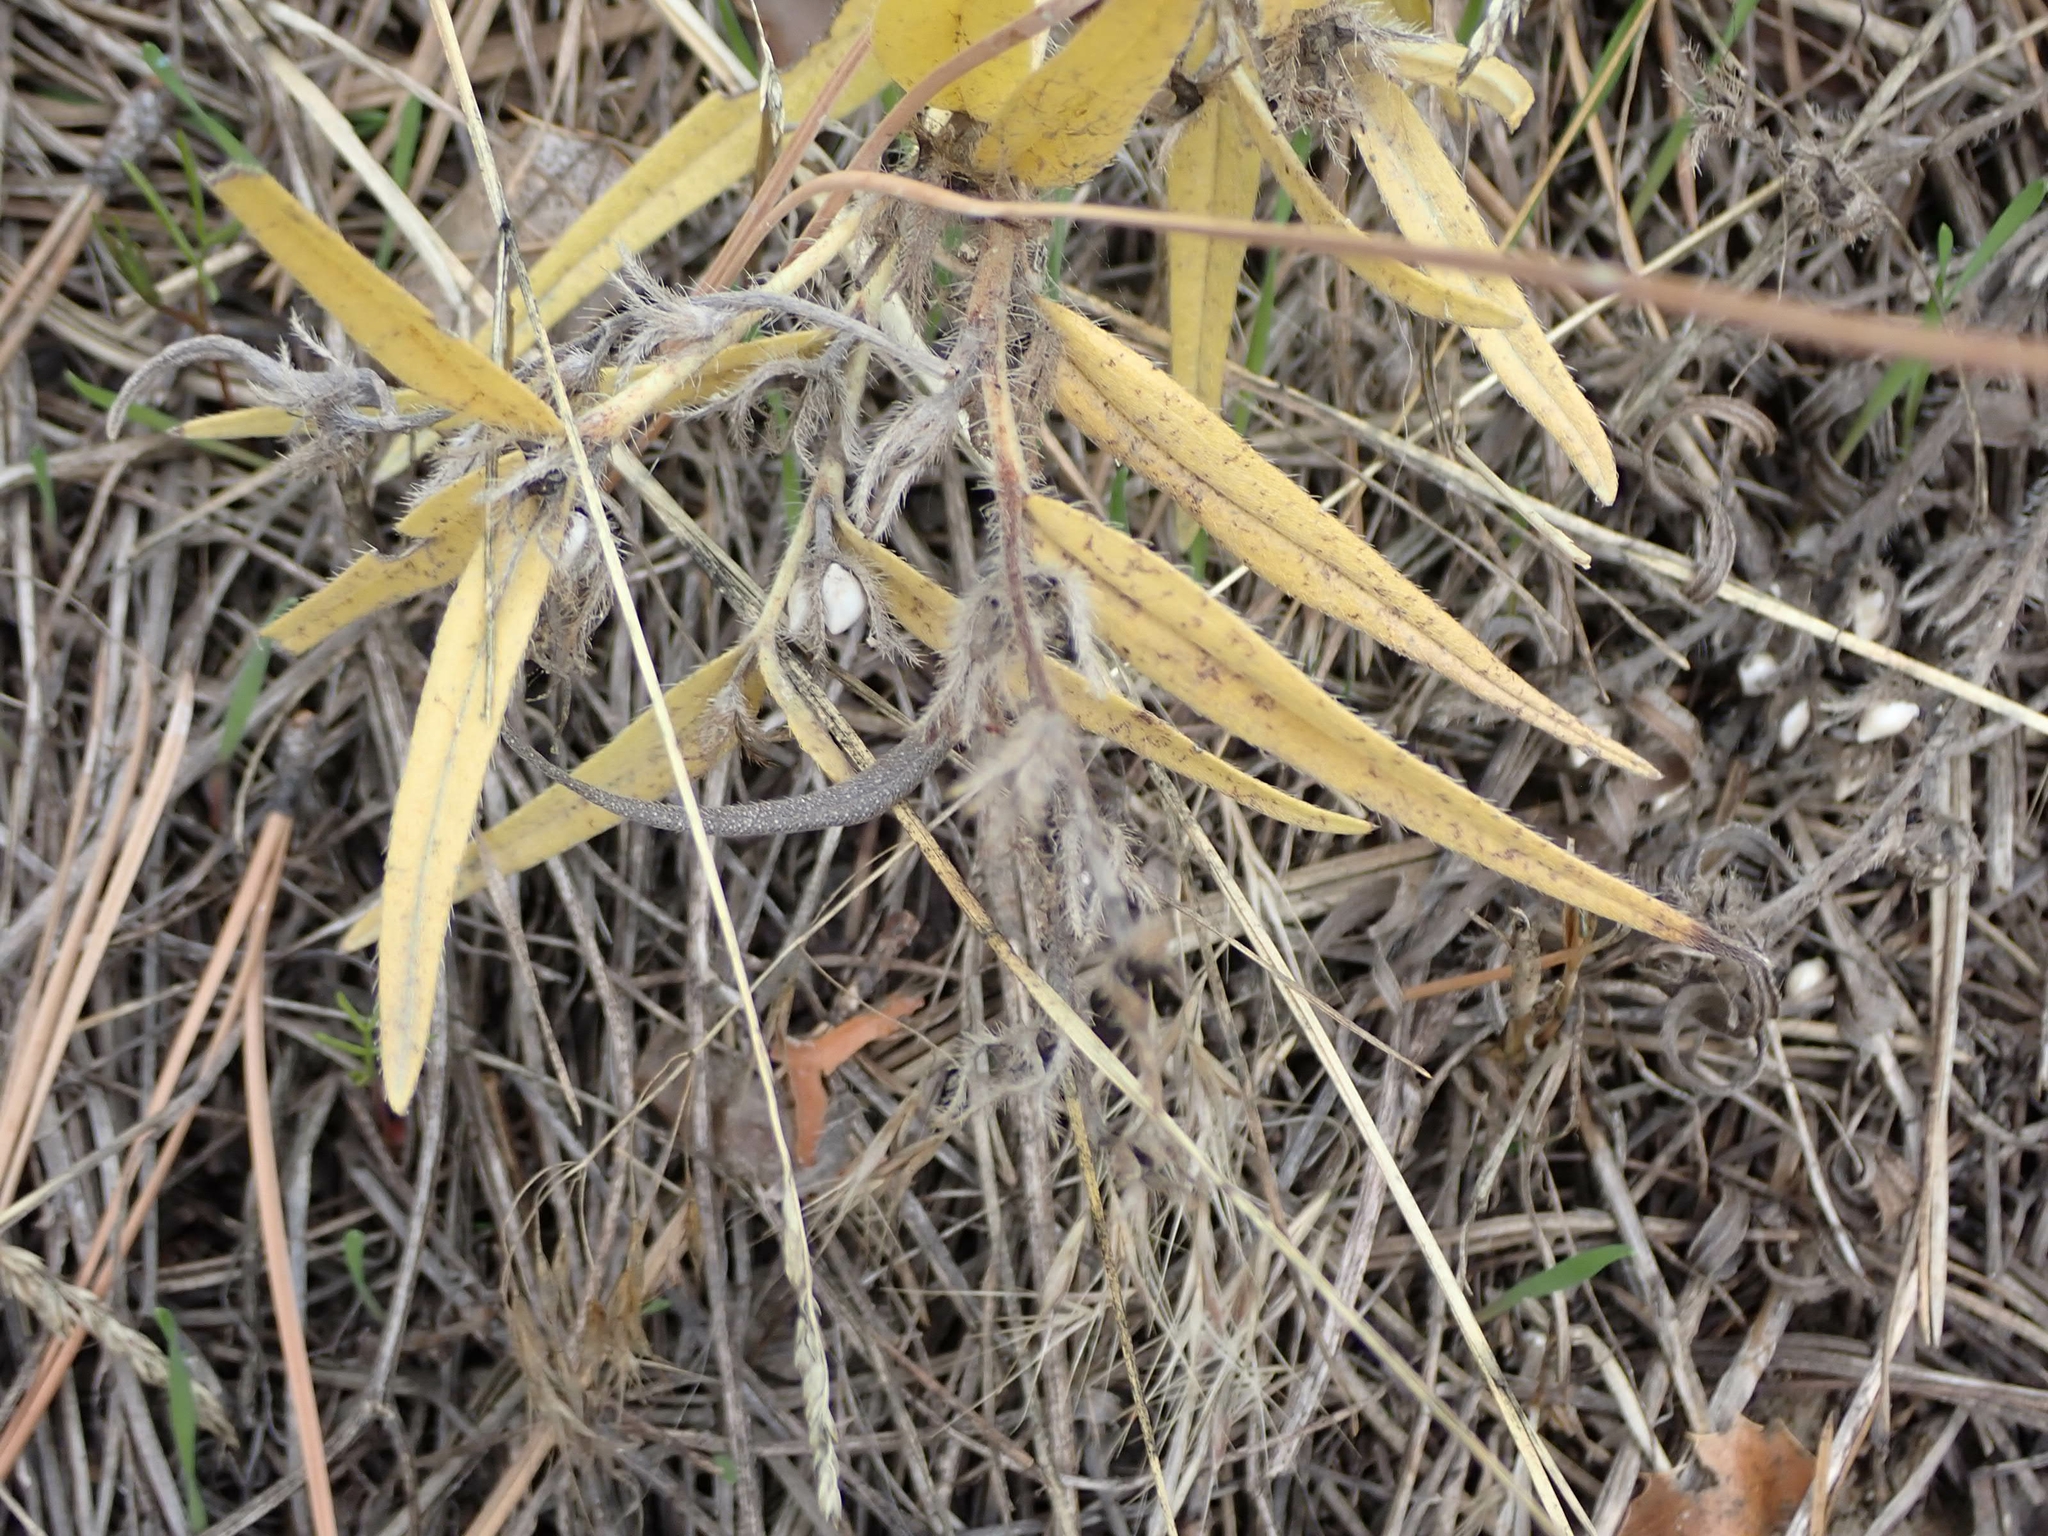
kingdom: Plantae
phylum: Tracheophyta
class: Magnoliopsida
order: Boraginales
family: Boraginaceae
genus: Lithospermum
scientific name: Lithospermum ruderale
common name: Western gromwell
